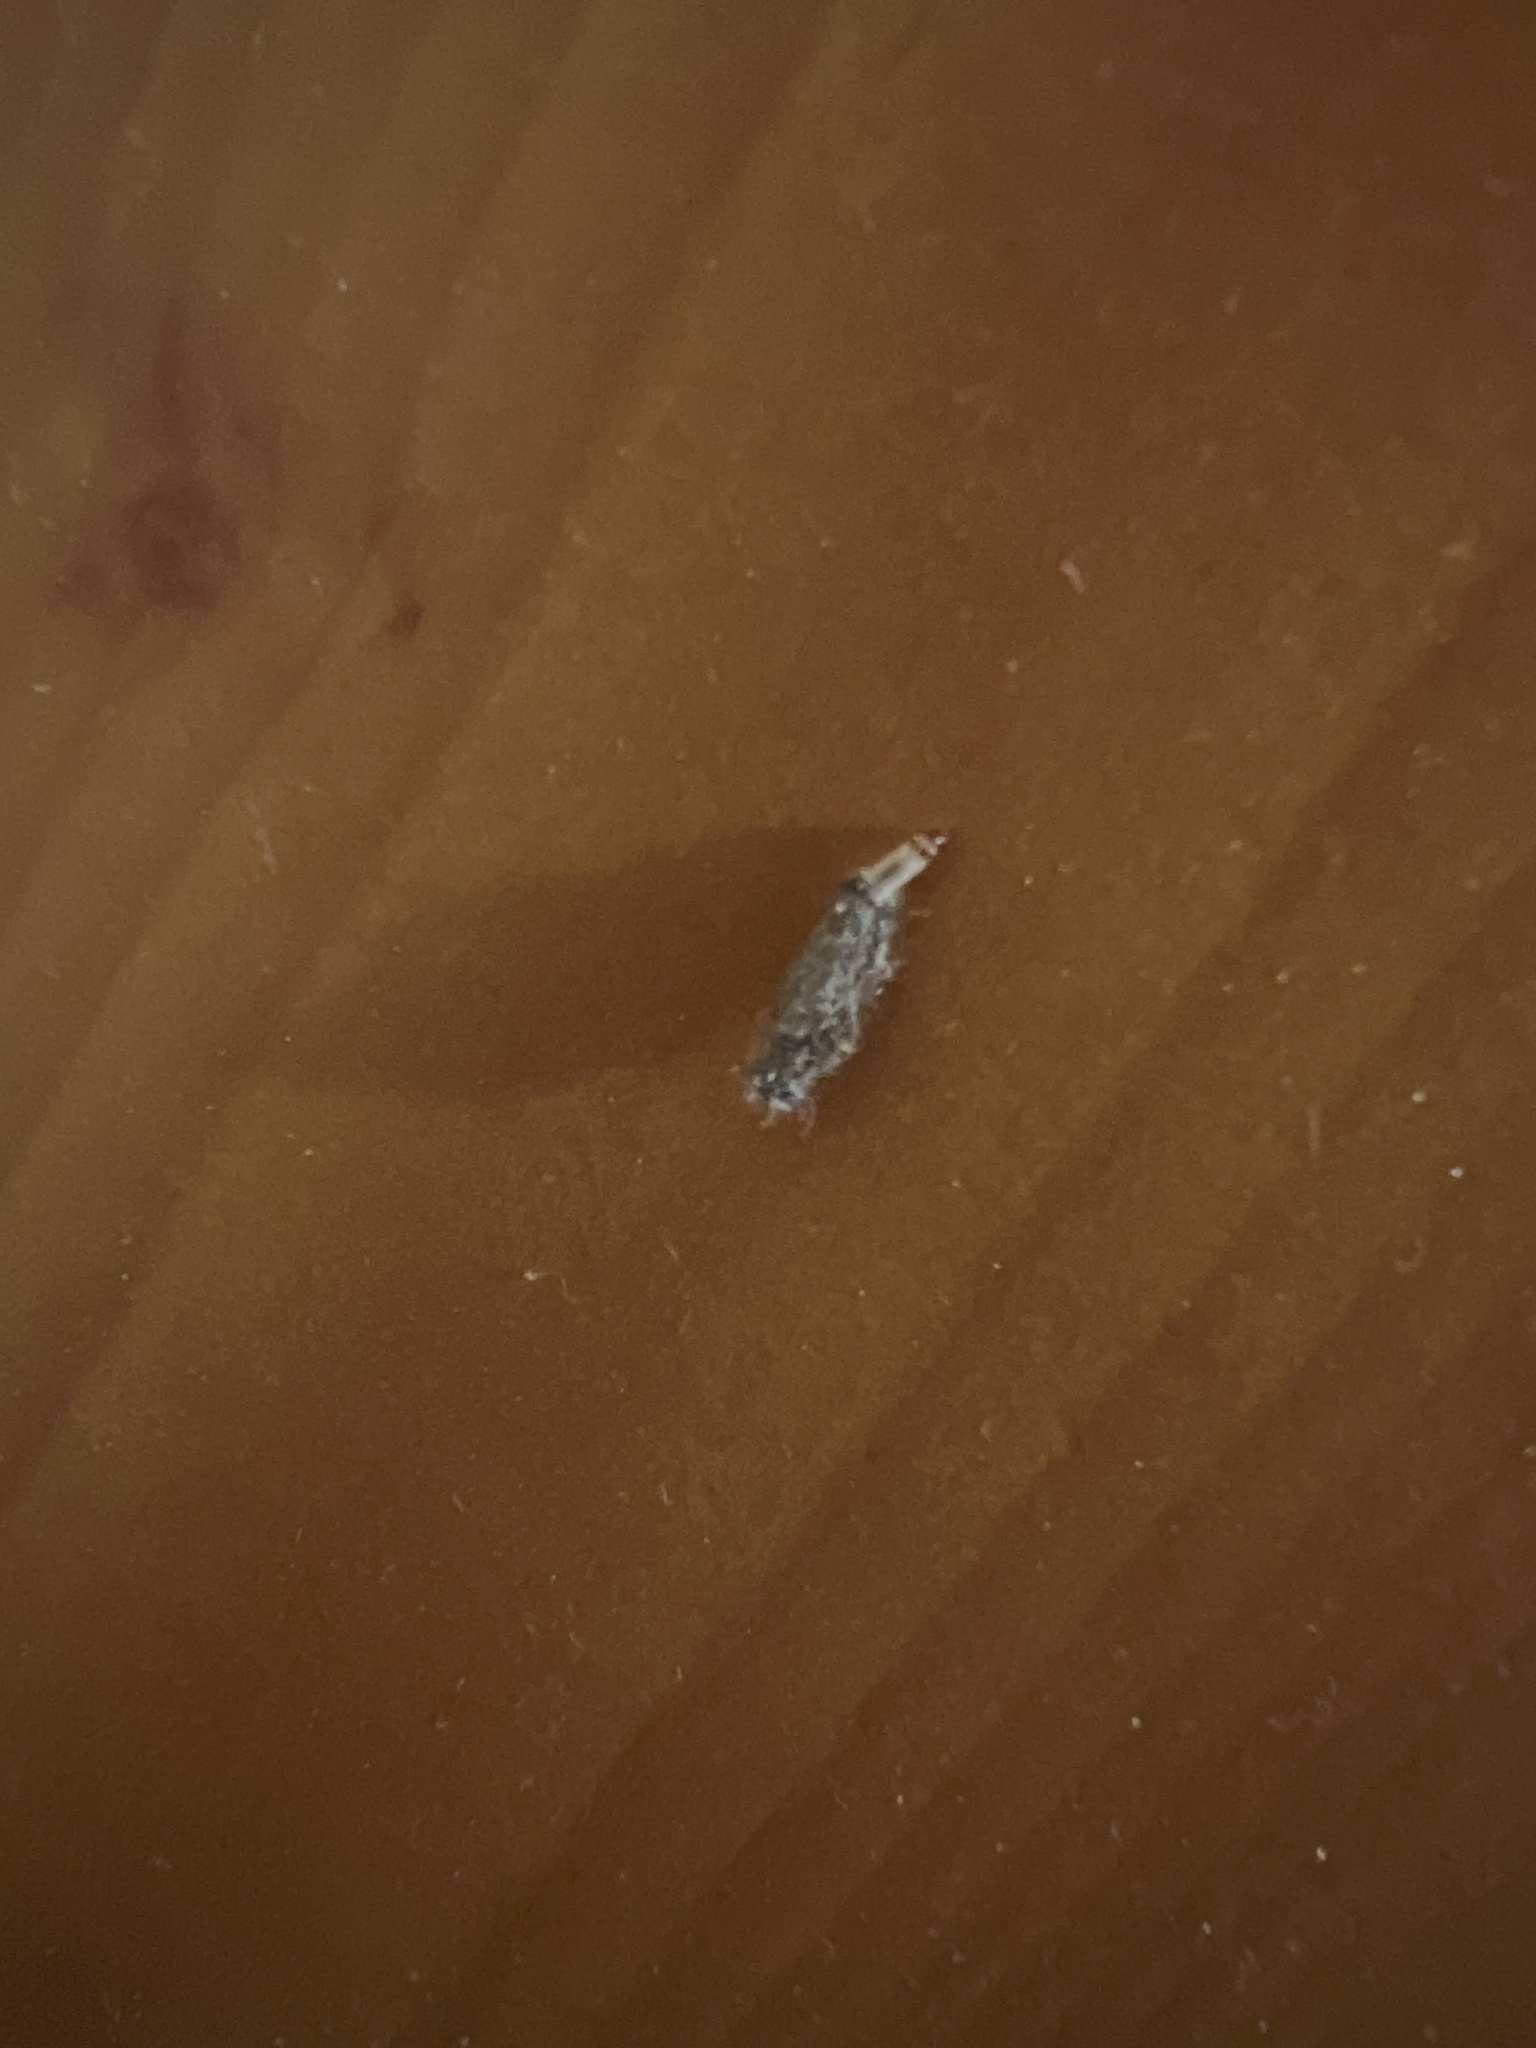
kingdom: Animalia
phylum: Arthropoda
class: Insecta
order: Lepidoptera
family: Tineidae
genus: Tinea
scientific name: Tinea pellionella
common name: Case-making clothes moth
